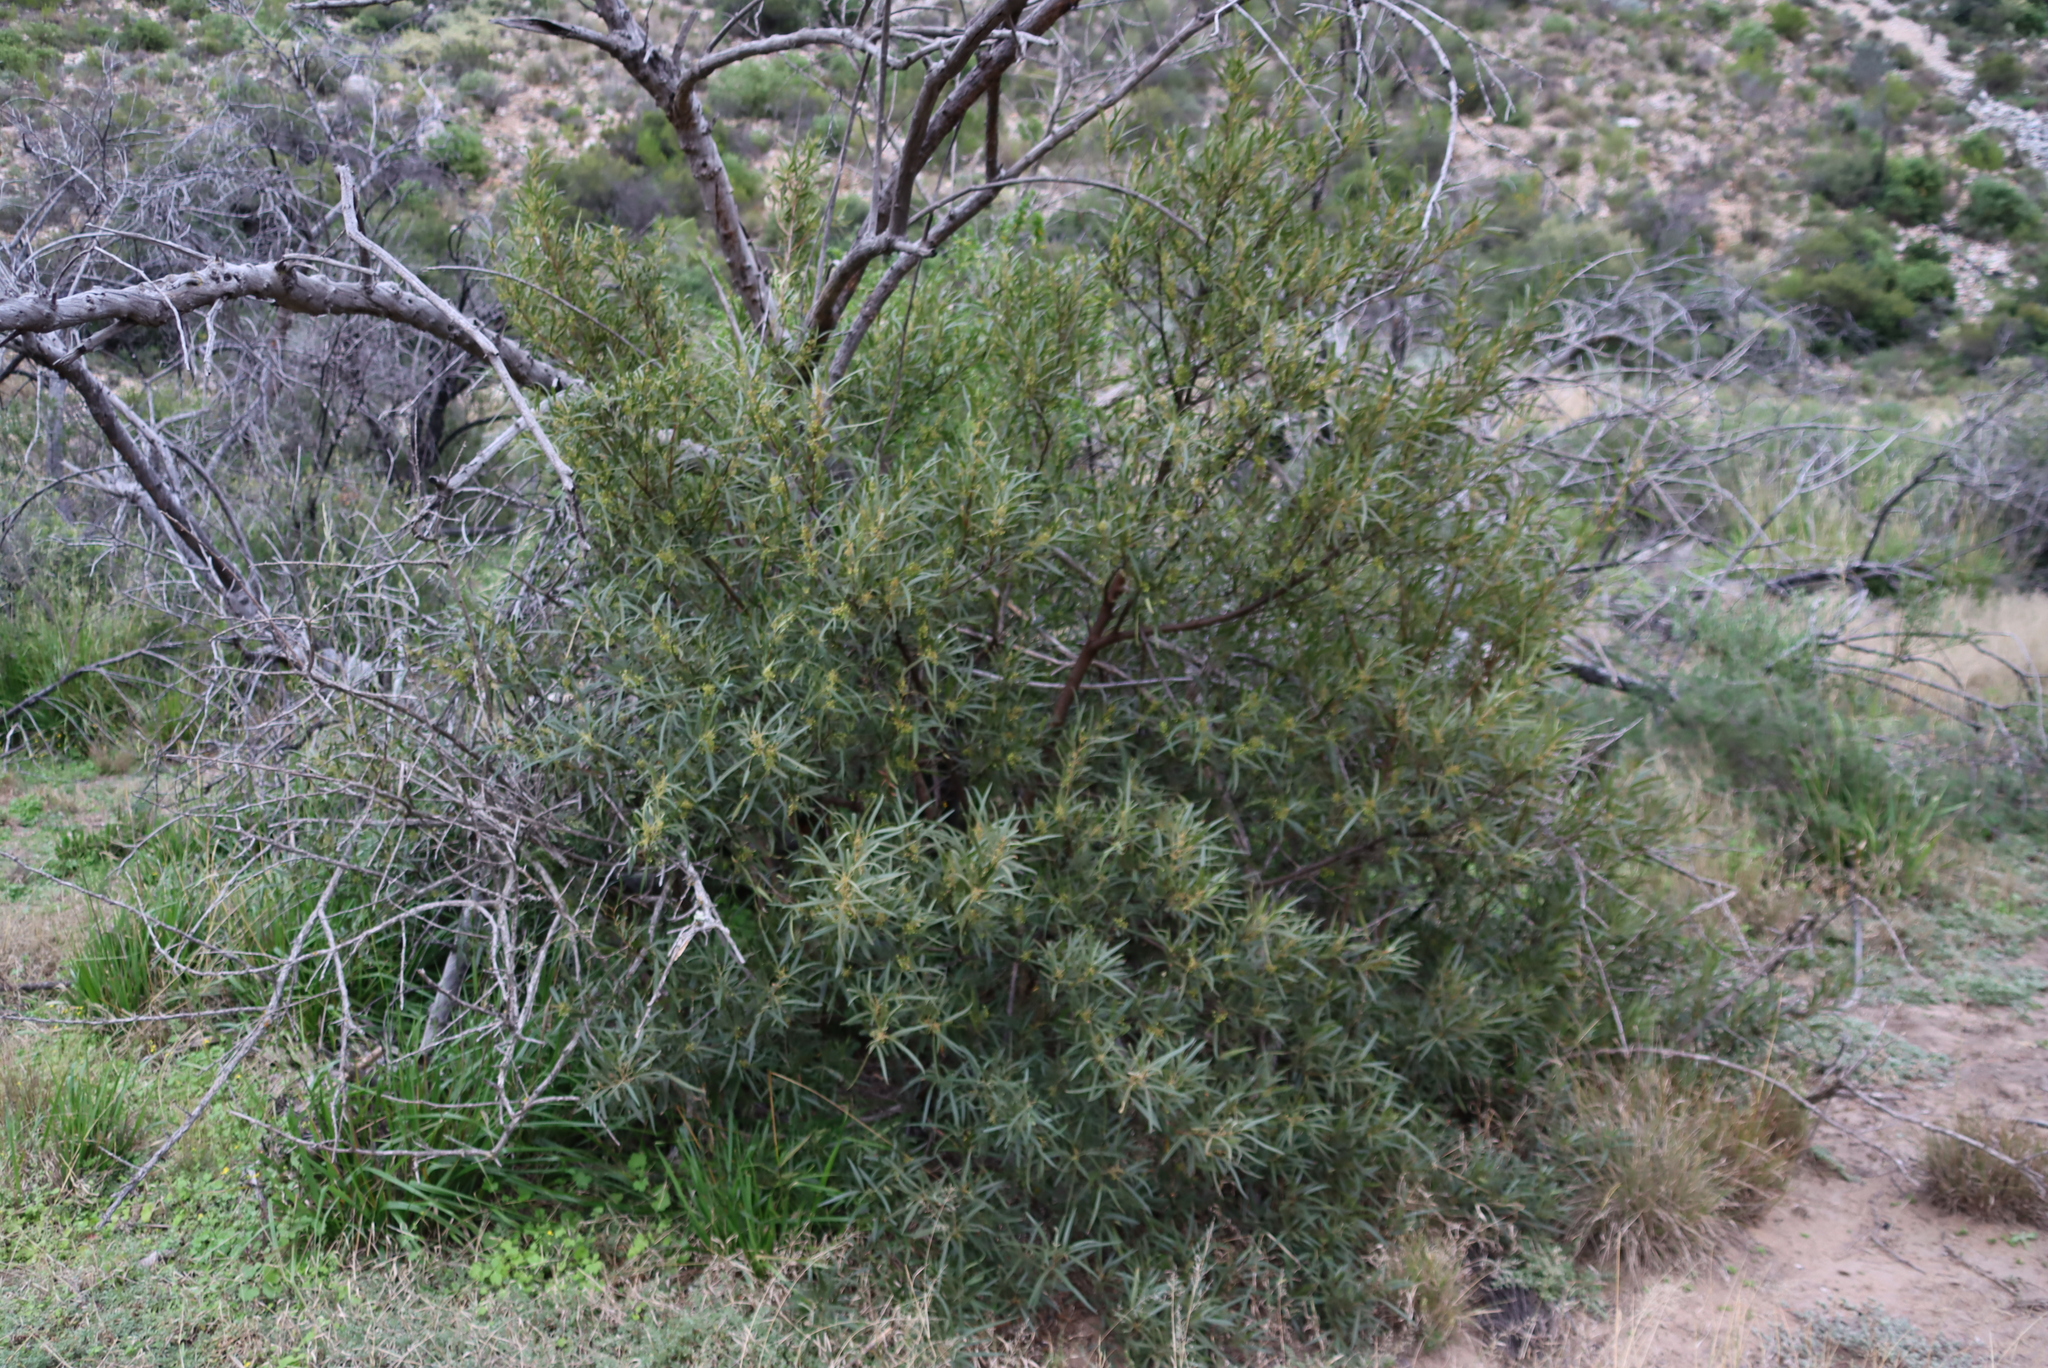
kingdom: Plantae
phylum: Tracheophyta
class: Magnoliopsida
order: Sapindales
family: Anacardiaceae
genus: Searsia
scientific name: Searsia lancea
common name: Cashew
